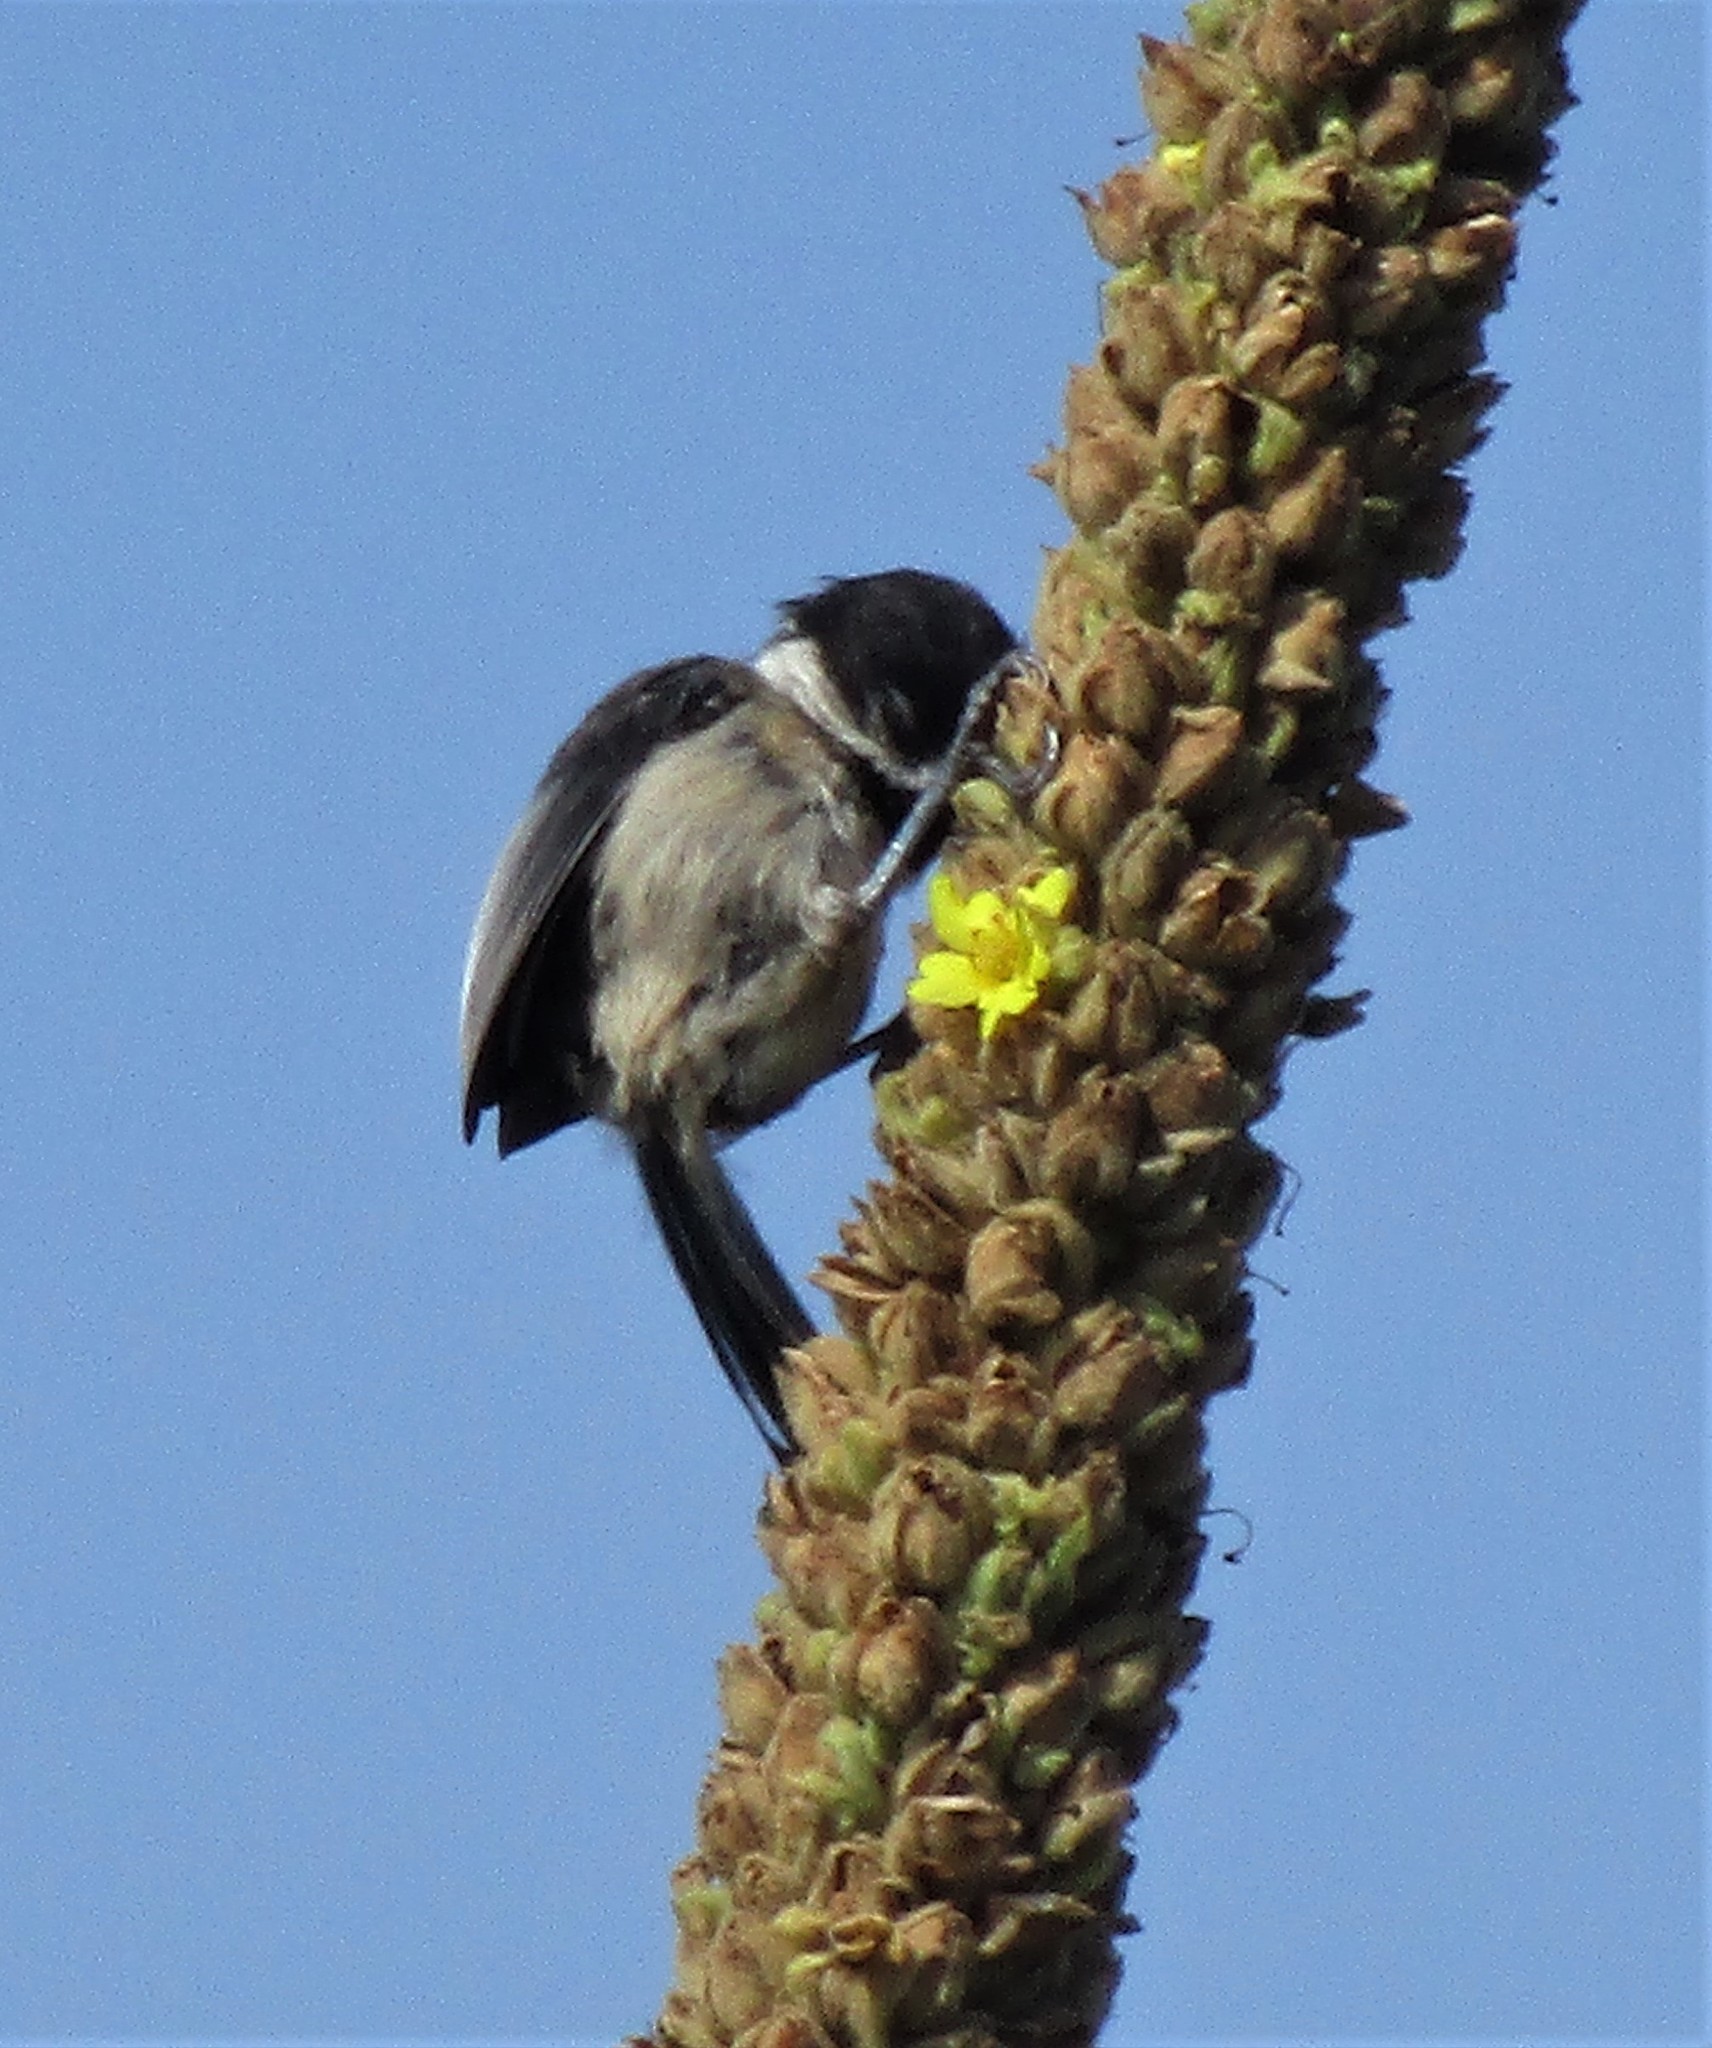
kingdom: Animalia
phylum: Chordata
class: Aves
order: Passeriformes
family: Paridae
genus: Poecile
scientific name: Poecile atricapillus
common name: Black-capped chickadee
